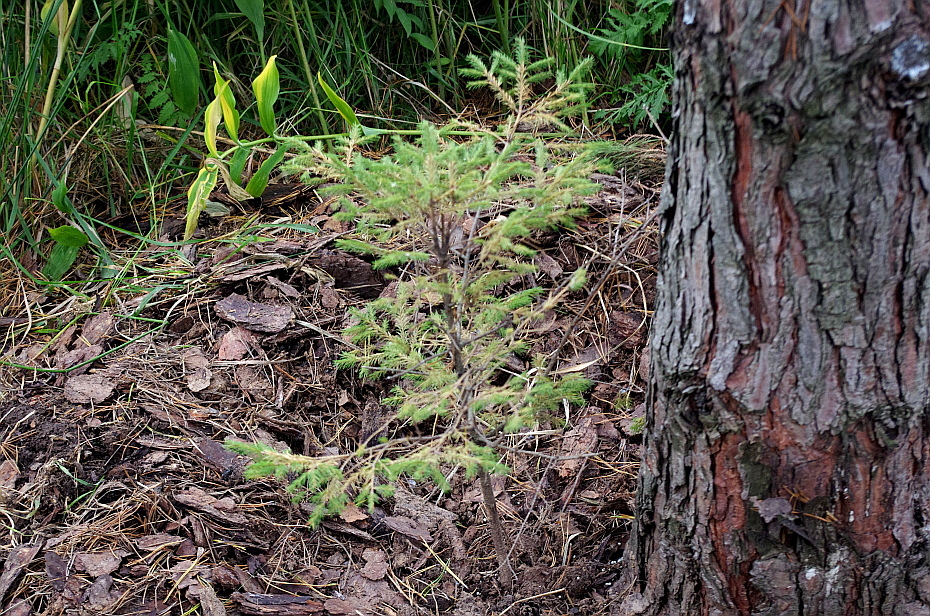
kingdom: Plantae
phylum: Tracheophyta
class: Pinopsida
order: Pinales
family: Pinaceae
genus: Picea
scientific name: Picea abies
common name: Norway spruce
